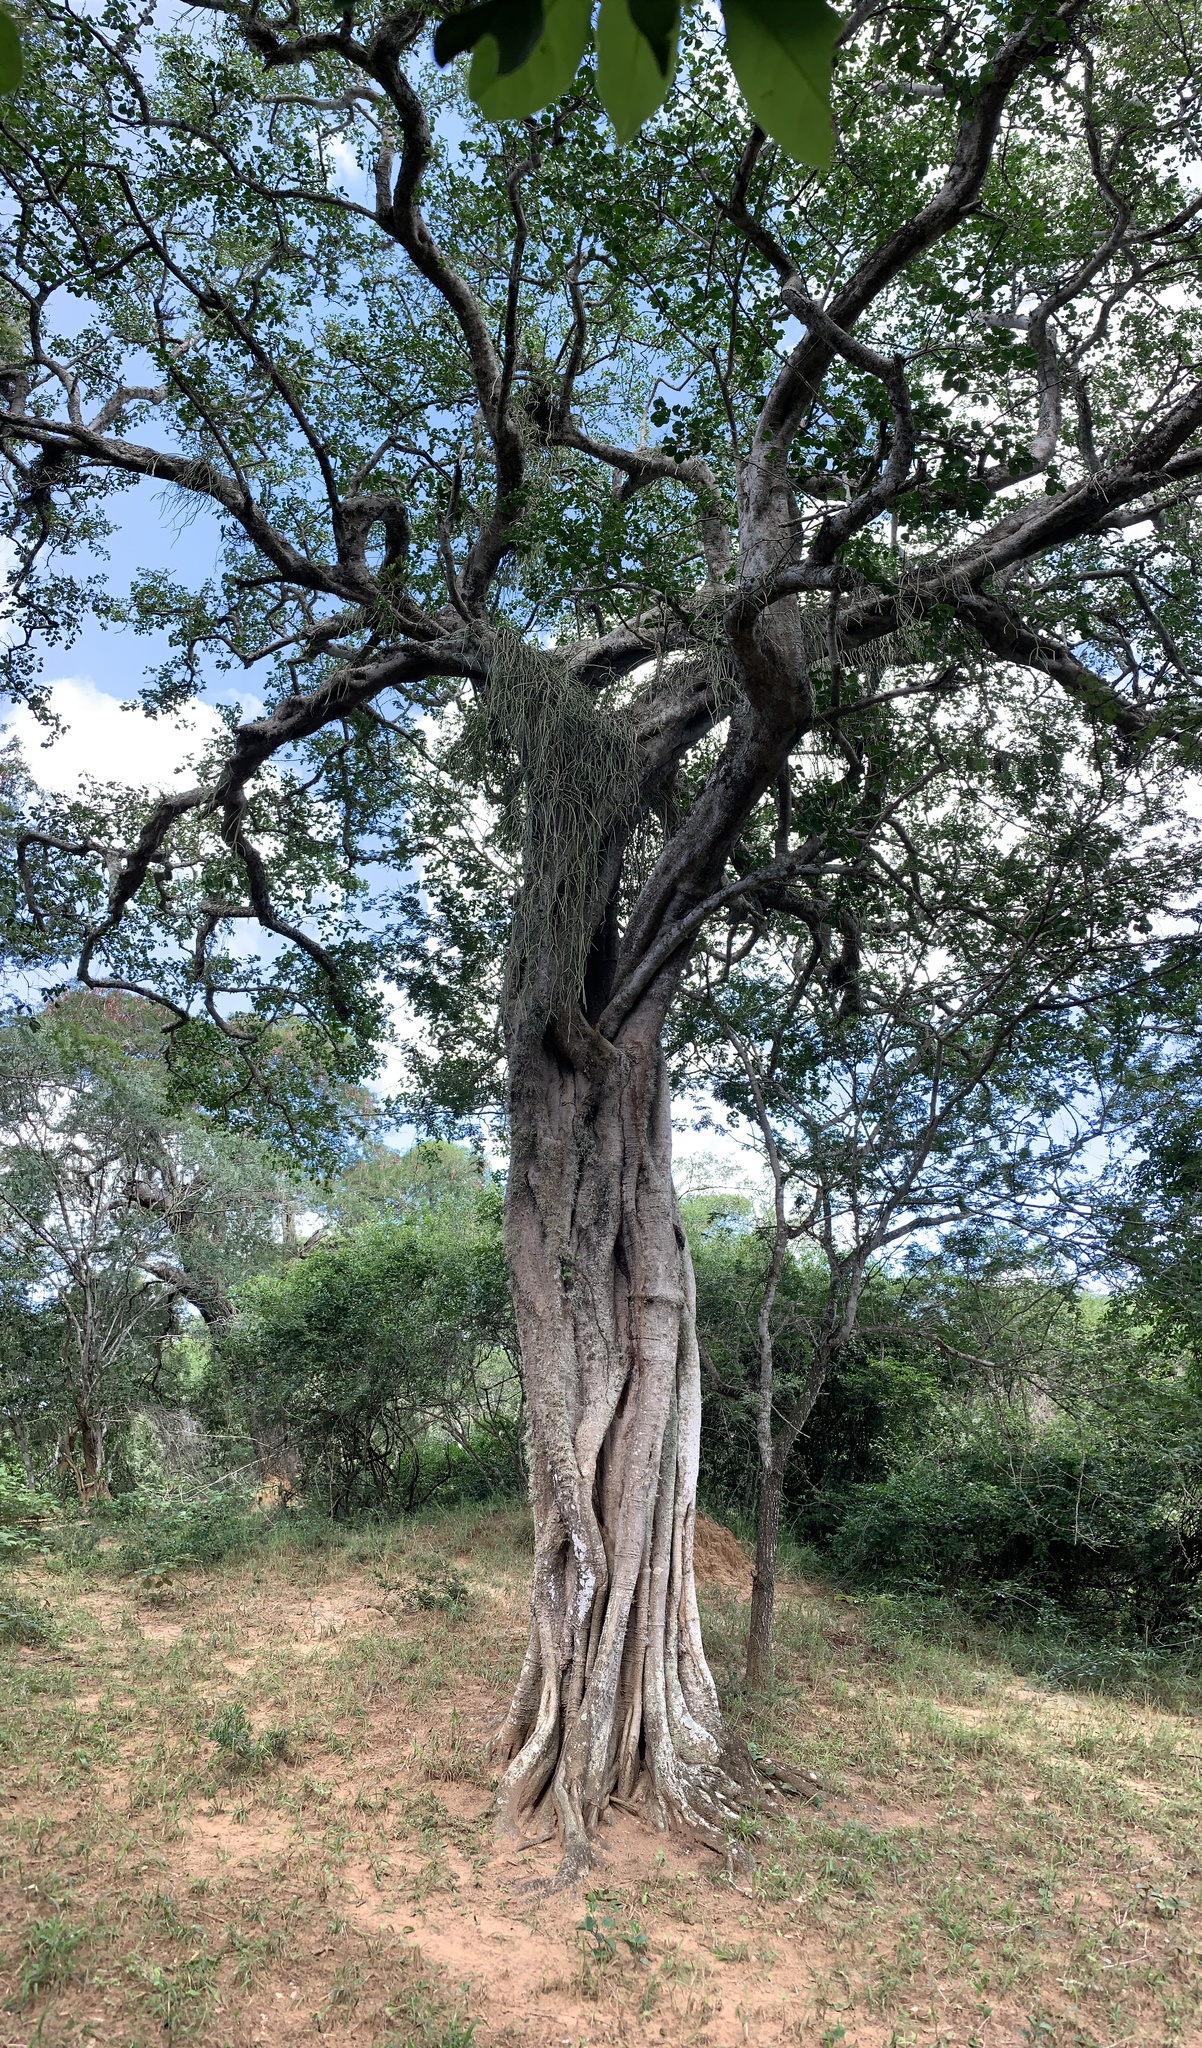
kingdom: Plantae
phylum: Tracheophyta
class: Magnoliopsida
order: Zygophyllales
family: Zygophyllaceae
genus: Balanites
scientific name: Balanites maughamii
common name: Torchwood
